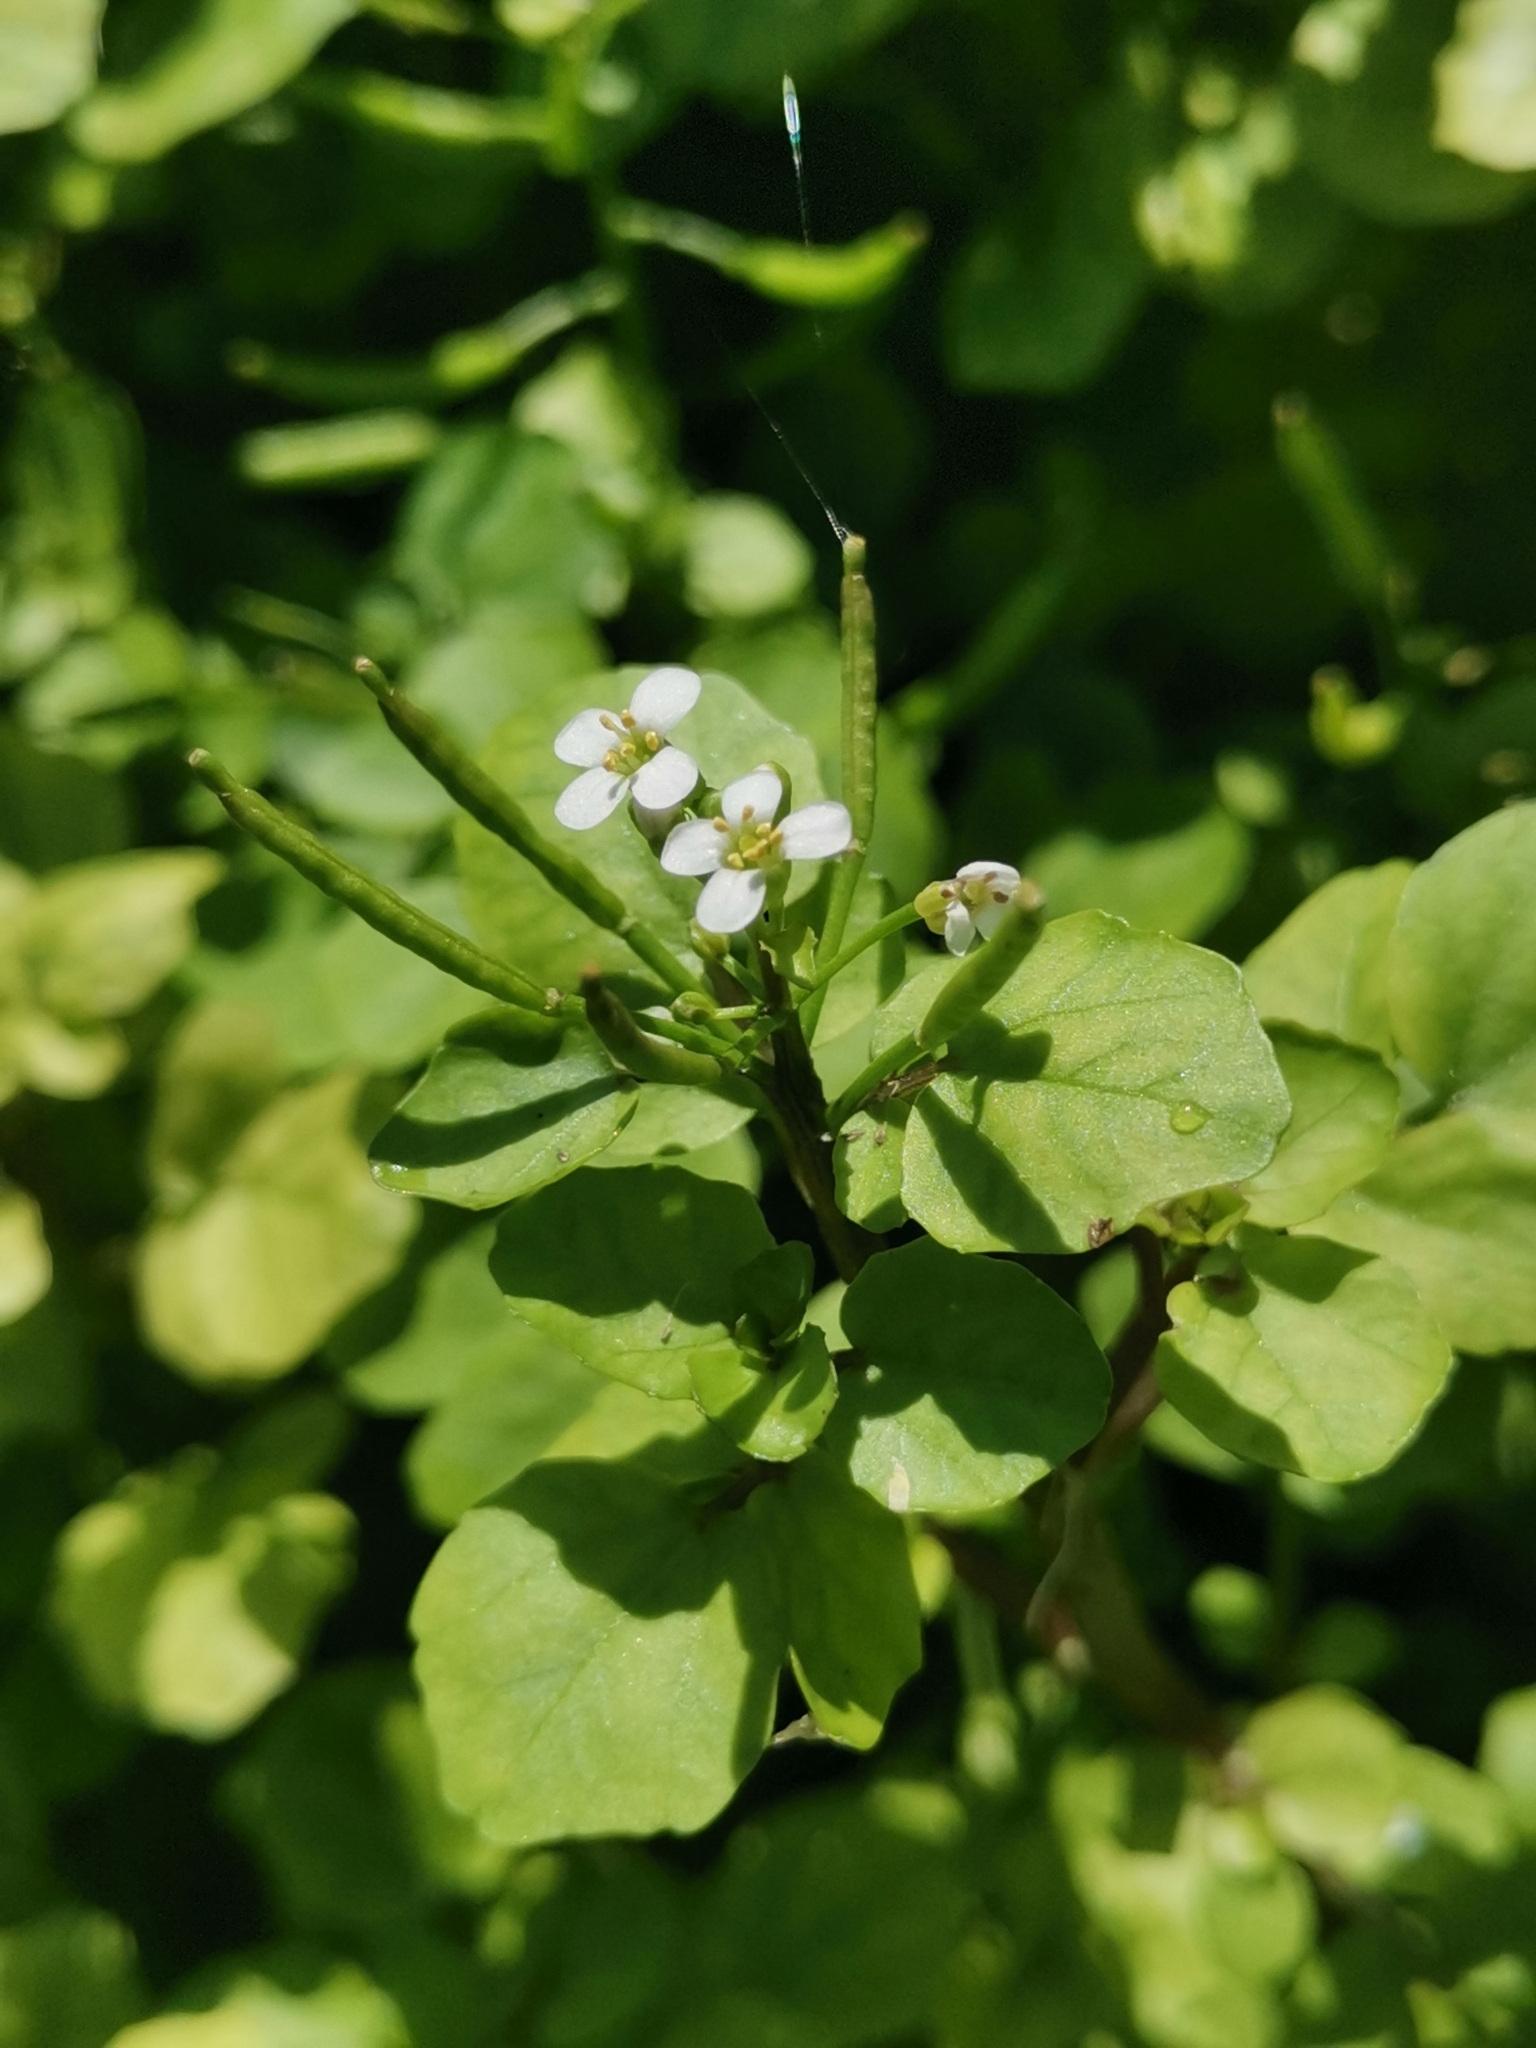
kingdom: Plantae
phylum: Tracheophyta
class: Magnoliopsida
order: Brassicales
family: Brassicaceae
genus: Nasturtium
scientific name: Nasturtium officinale
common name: Watercress
